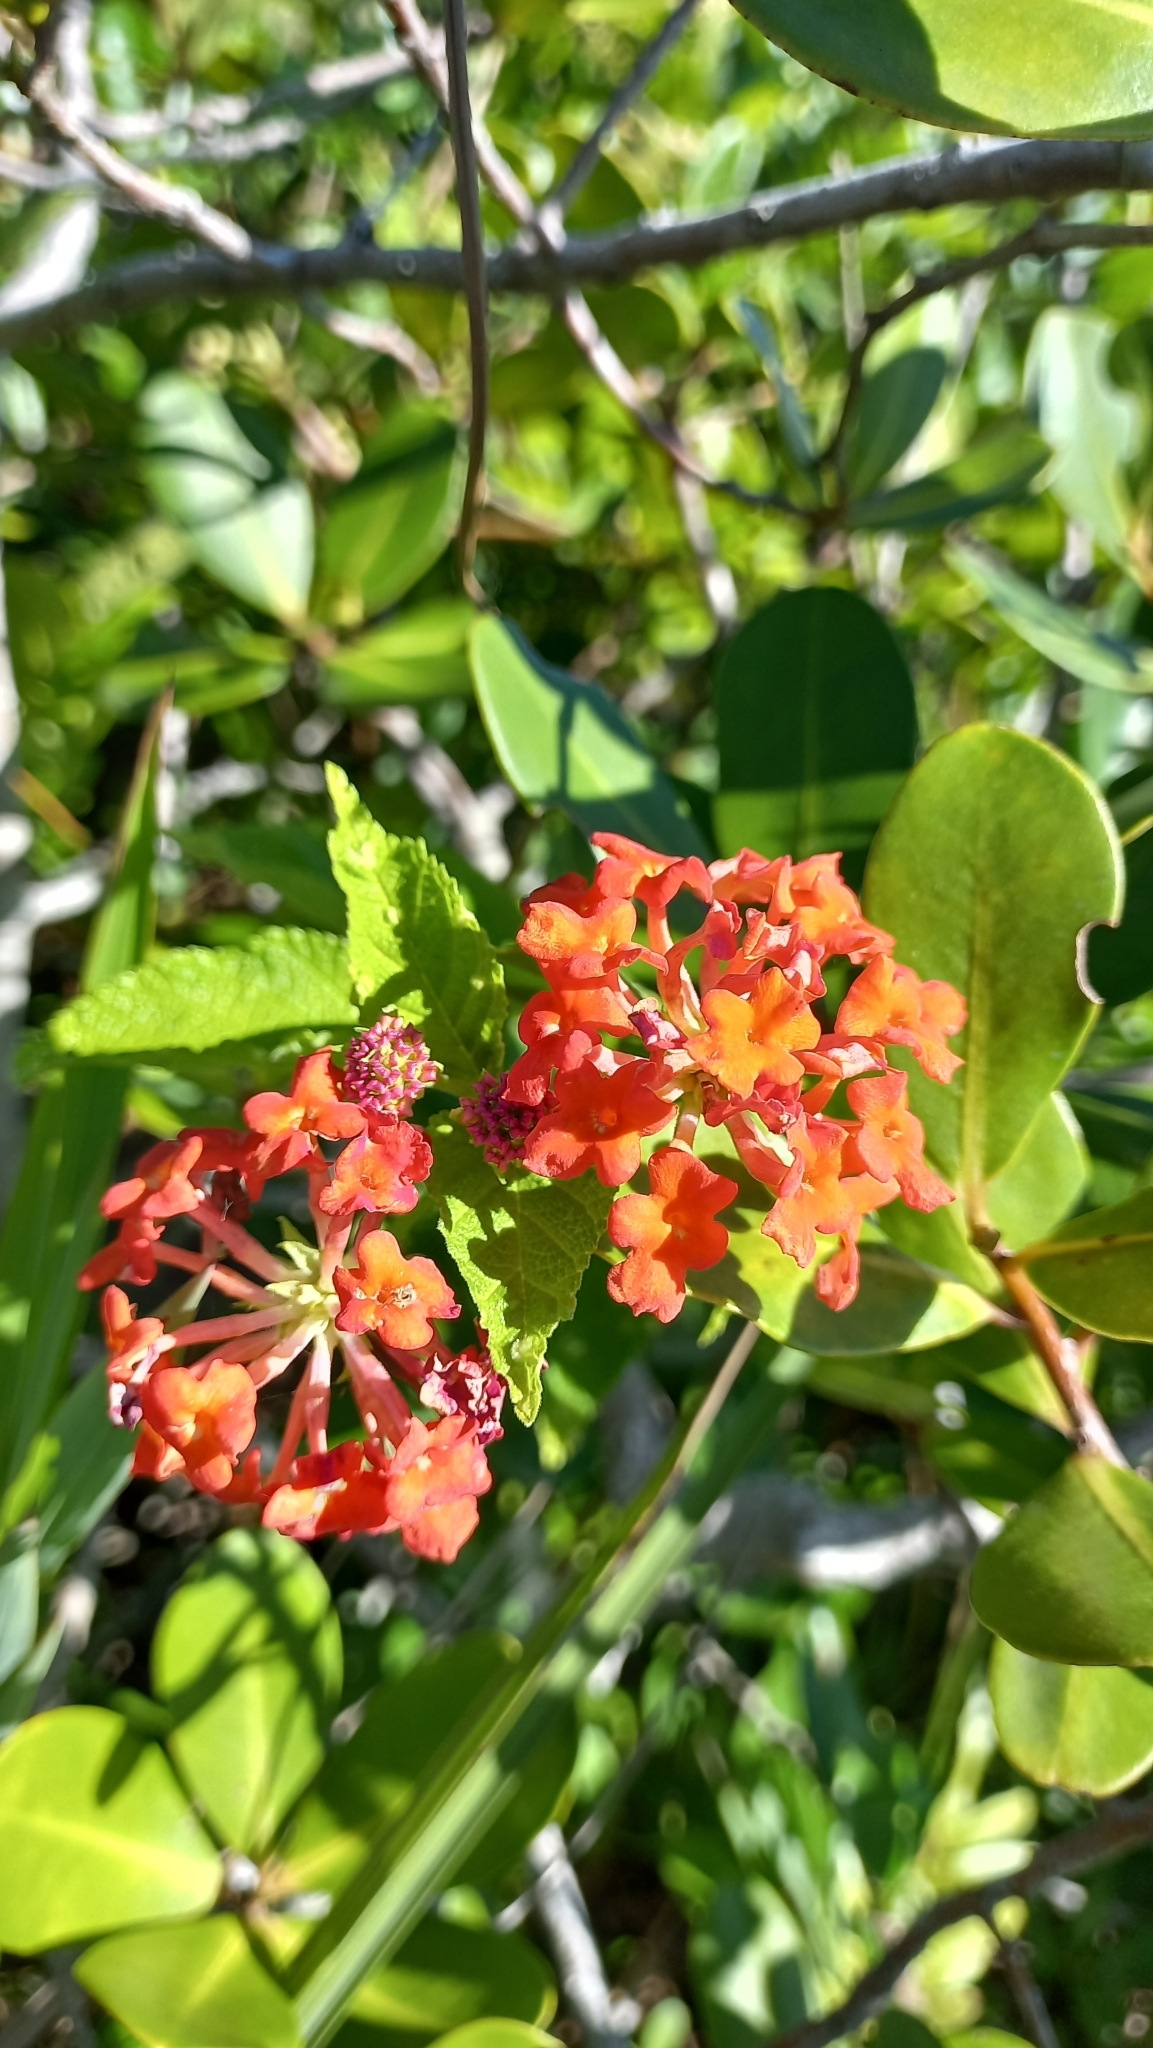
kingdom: Plantae
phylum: Tracheophyta
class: Magnoliopsida
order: Lamiales
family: Verbenaceae
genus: Lantana
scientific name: Lantana camara
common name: Lantana
